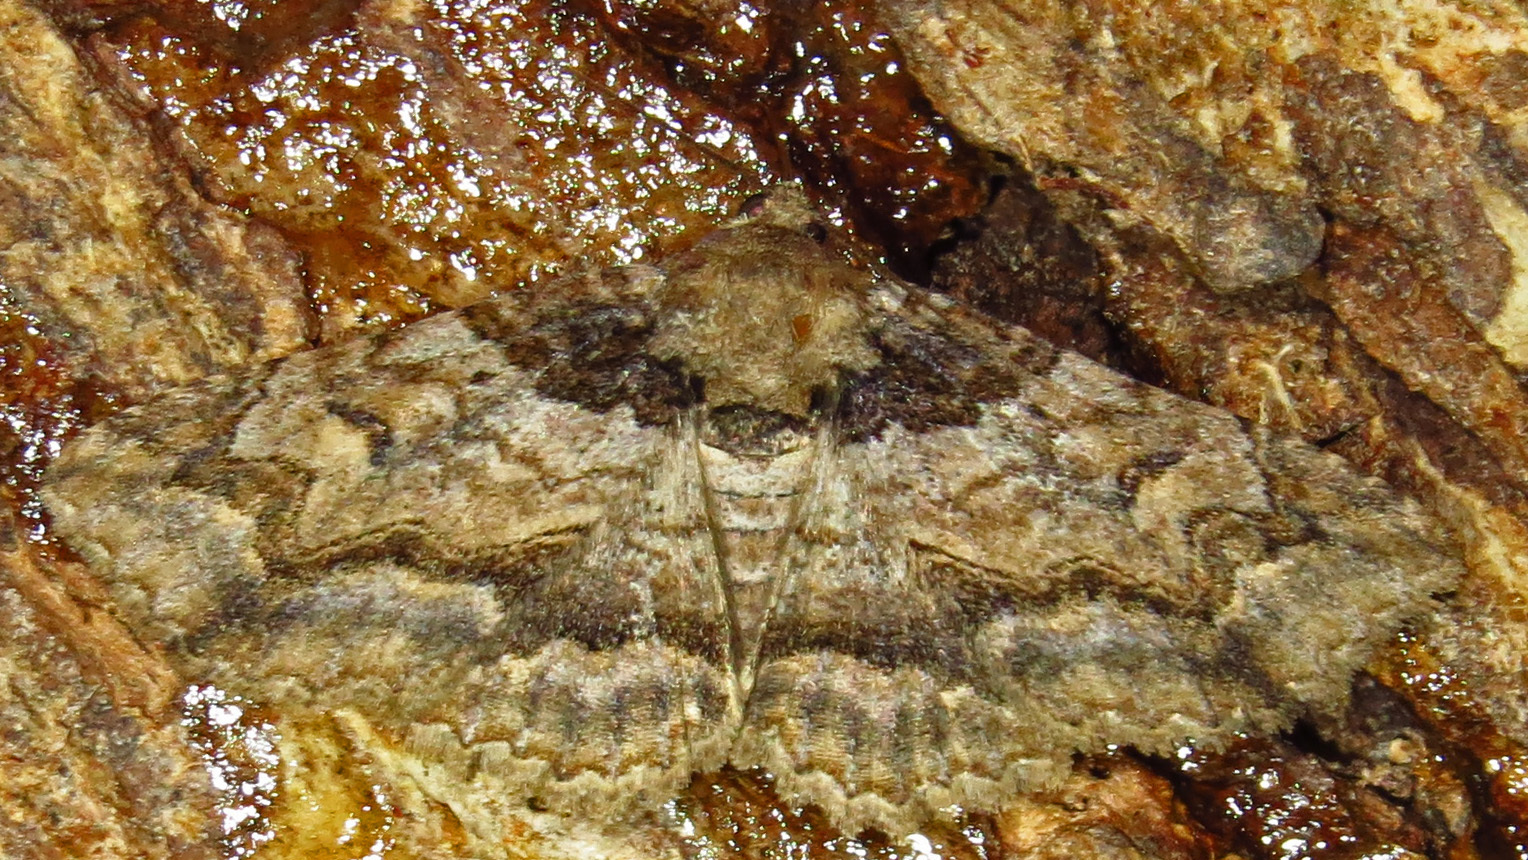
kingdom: Animalia
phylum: Arthropoda
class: Insecta
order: Lepidoptera
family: Erebidae
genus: Zale
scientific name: Zale galbanata
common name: Maple zale
